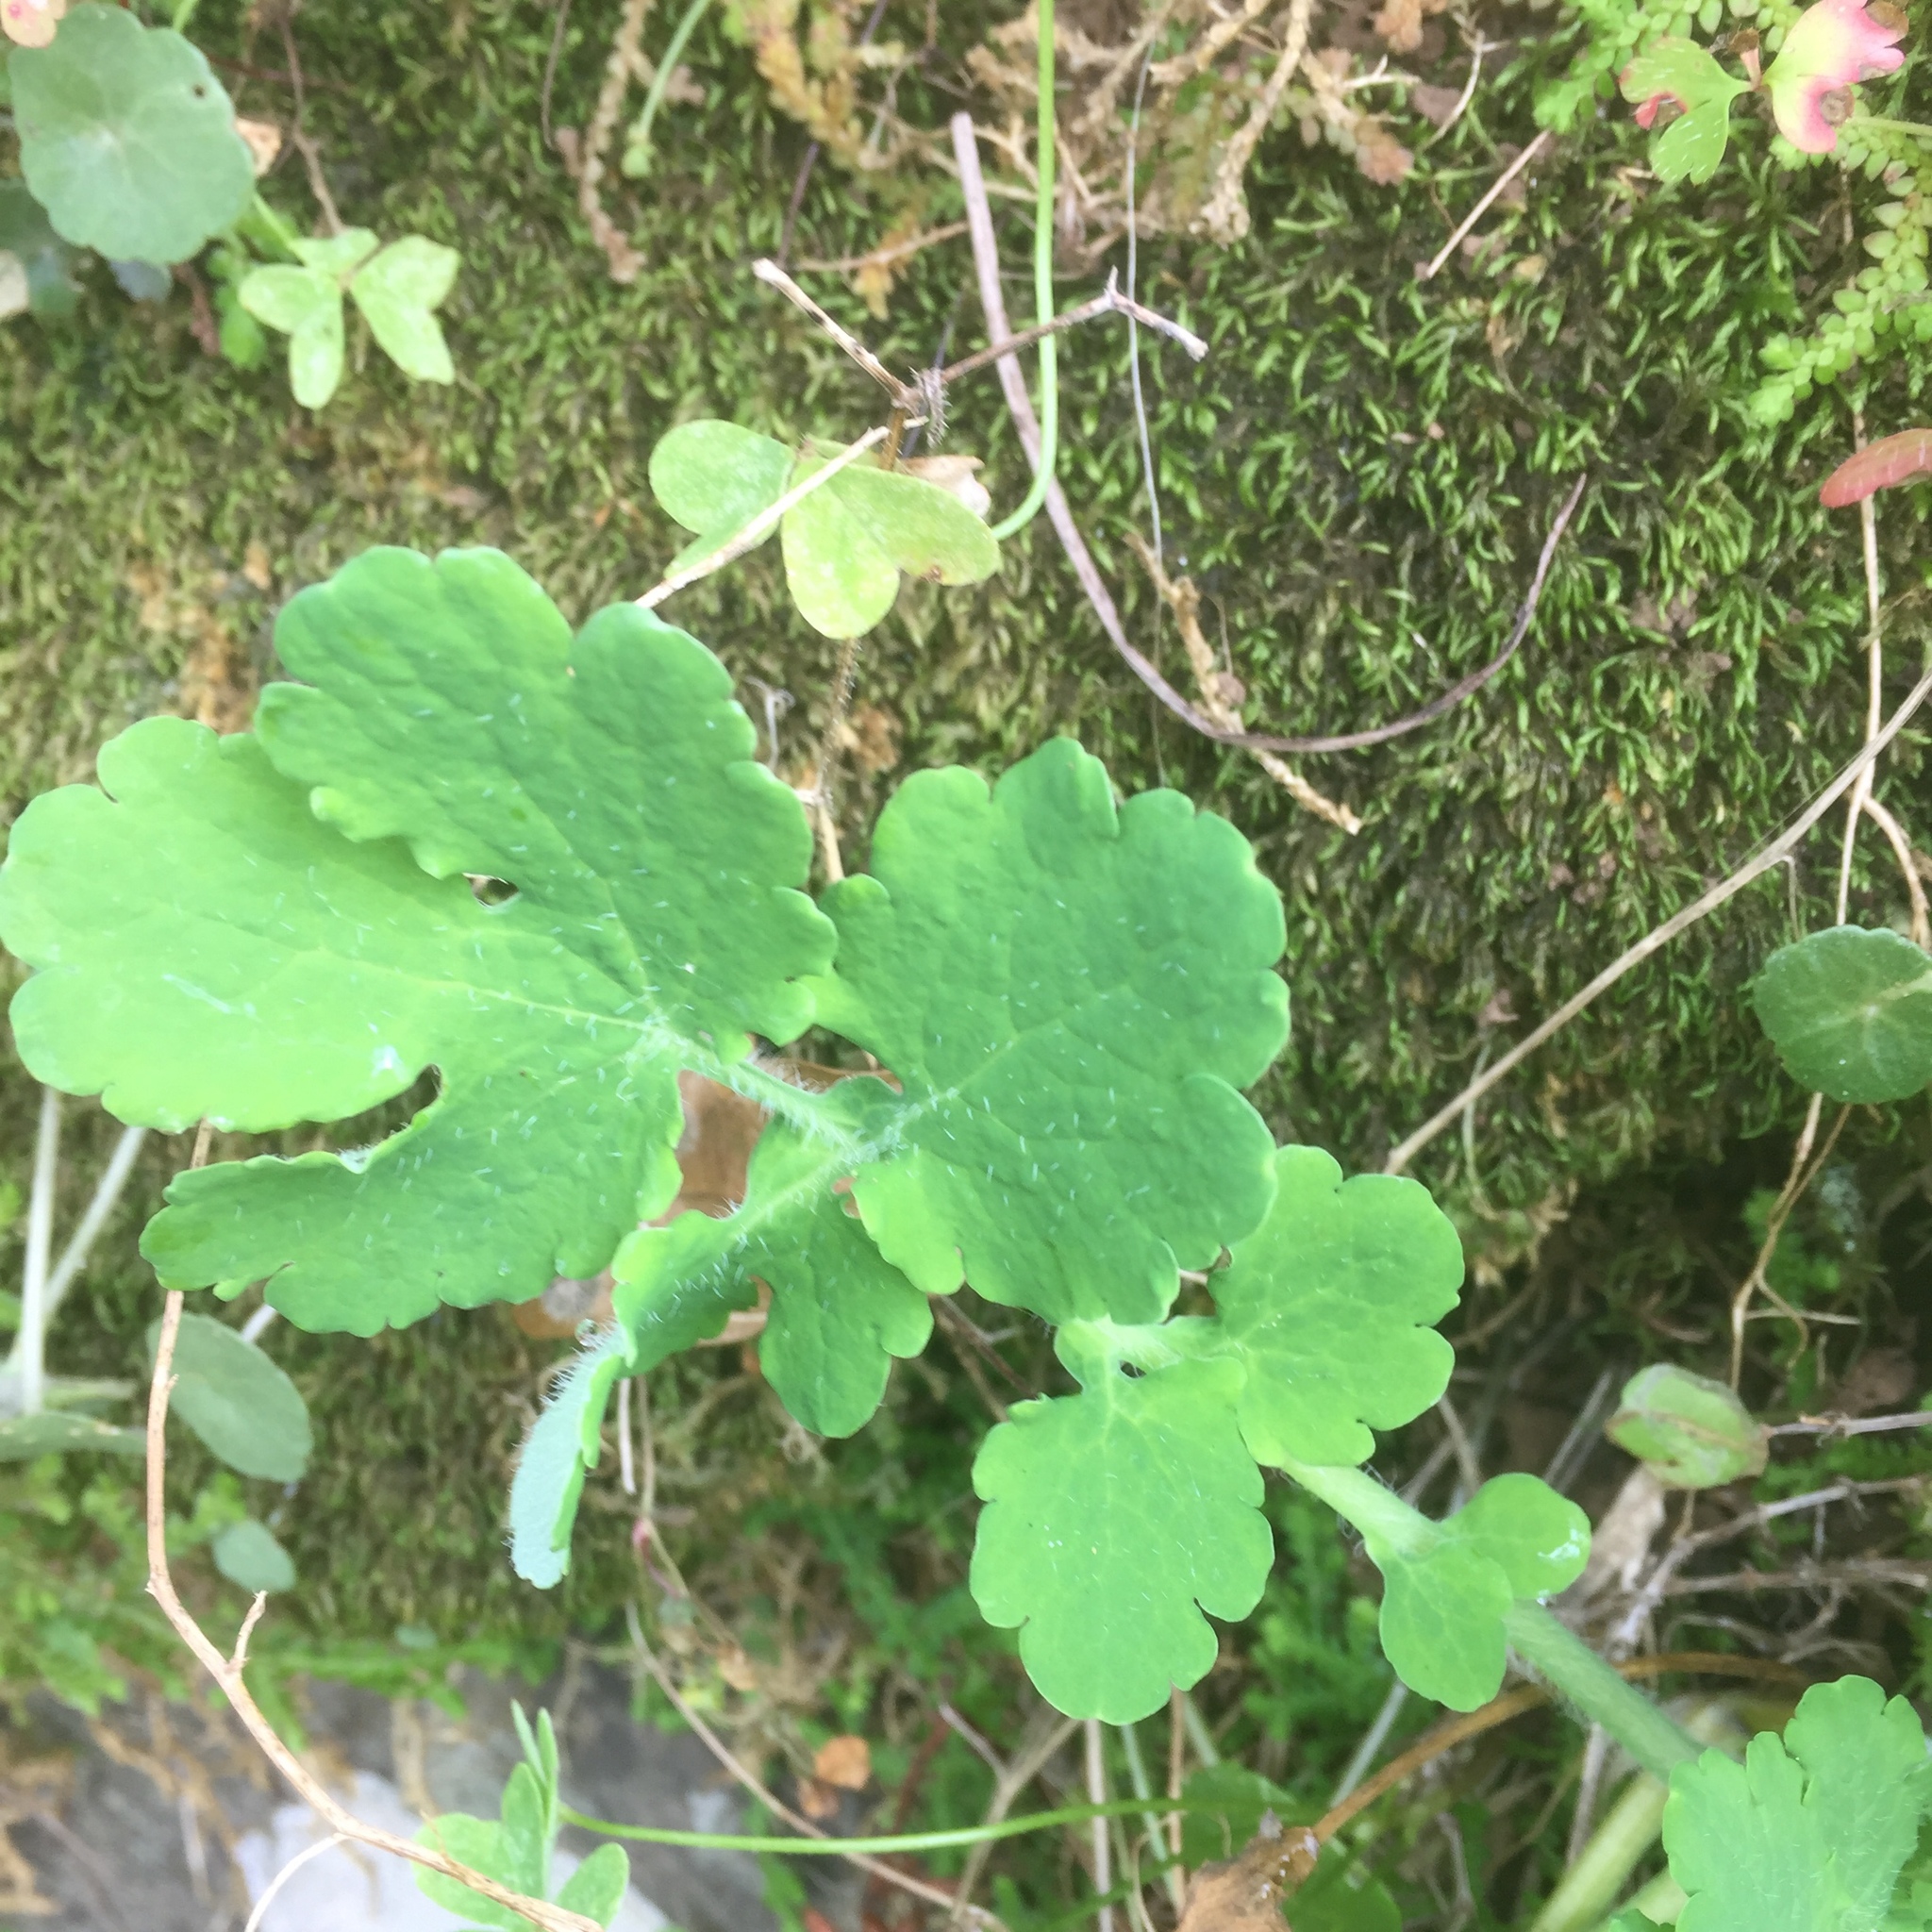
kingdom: Plantae
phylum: Tracheophyta
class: Magnoliopsida
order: Ranunculales
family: Papaveraceae
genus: Chelidonium
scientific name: Chelidonium majus
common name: Greater celandine
